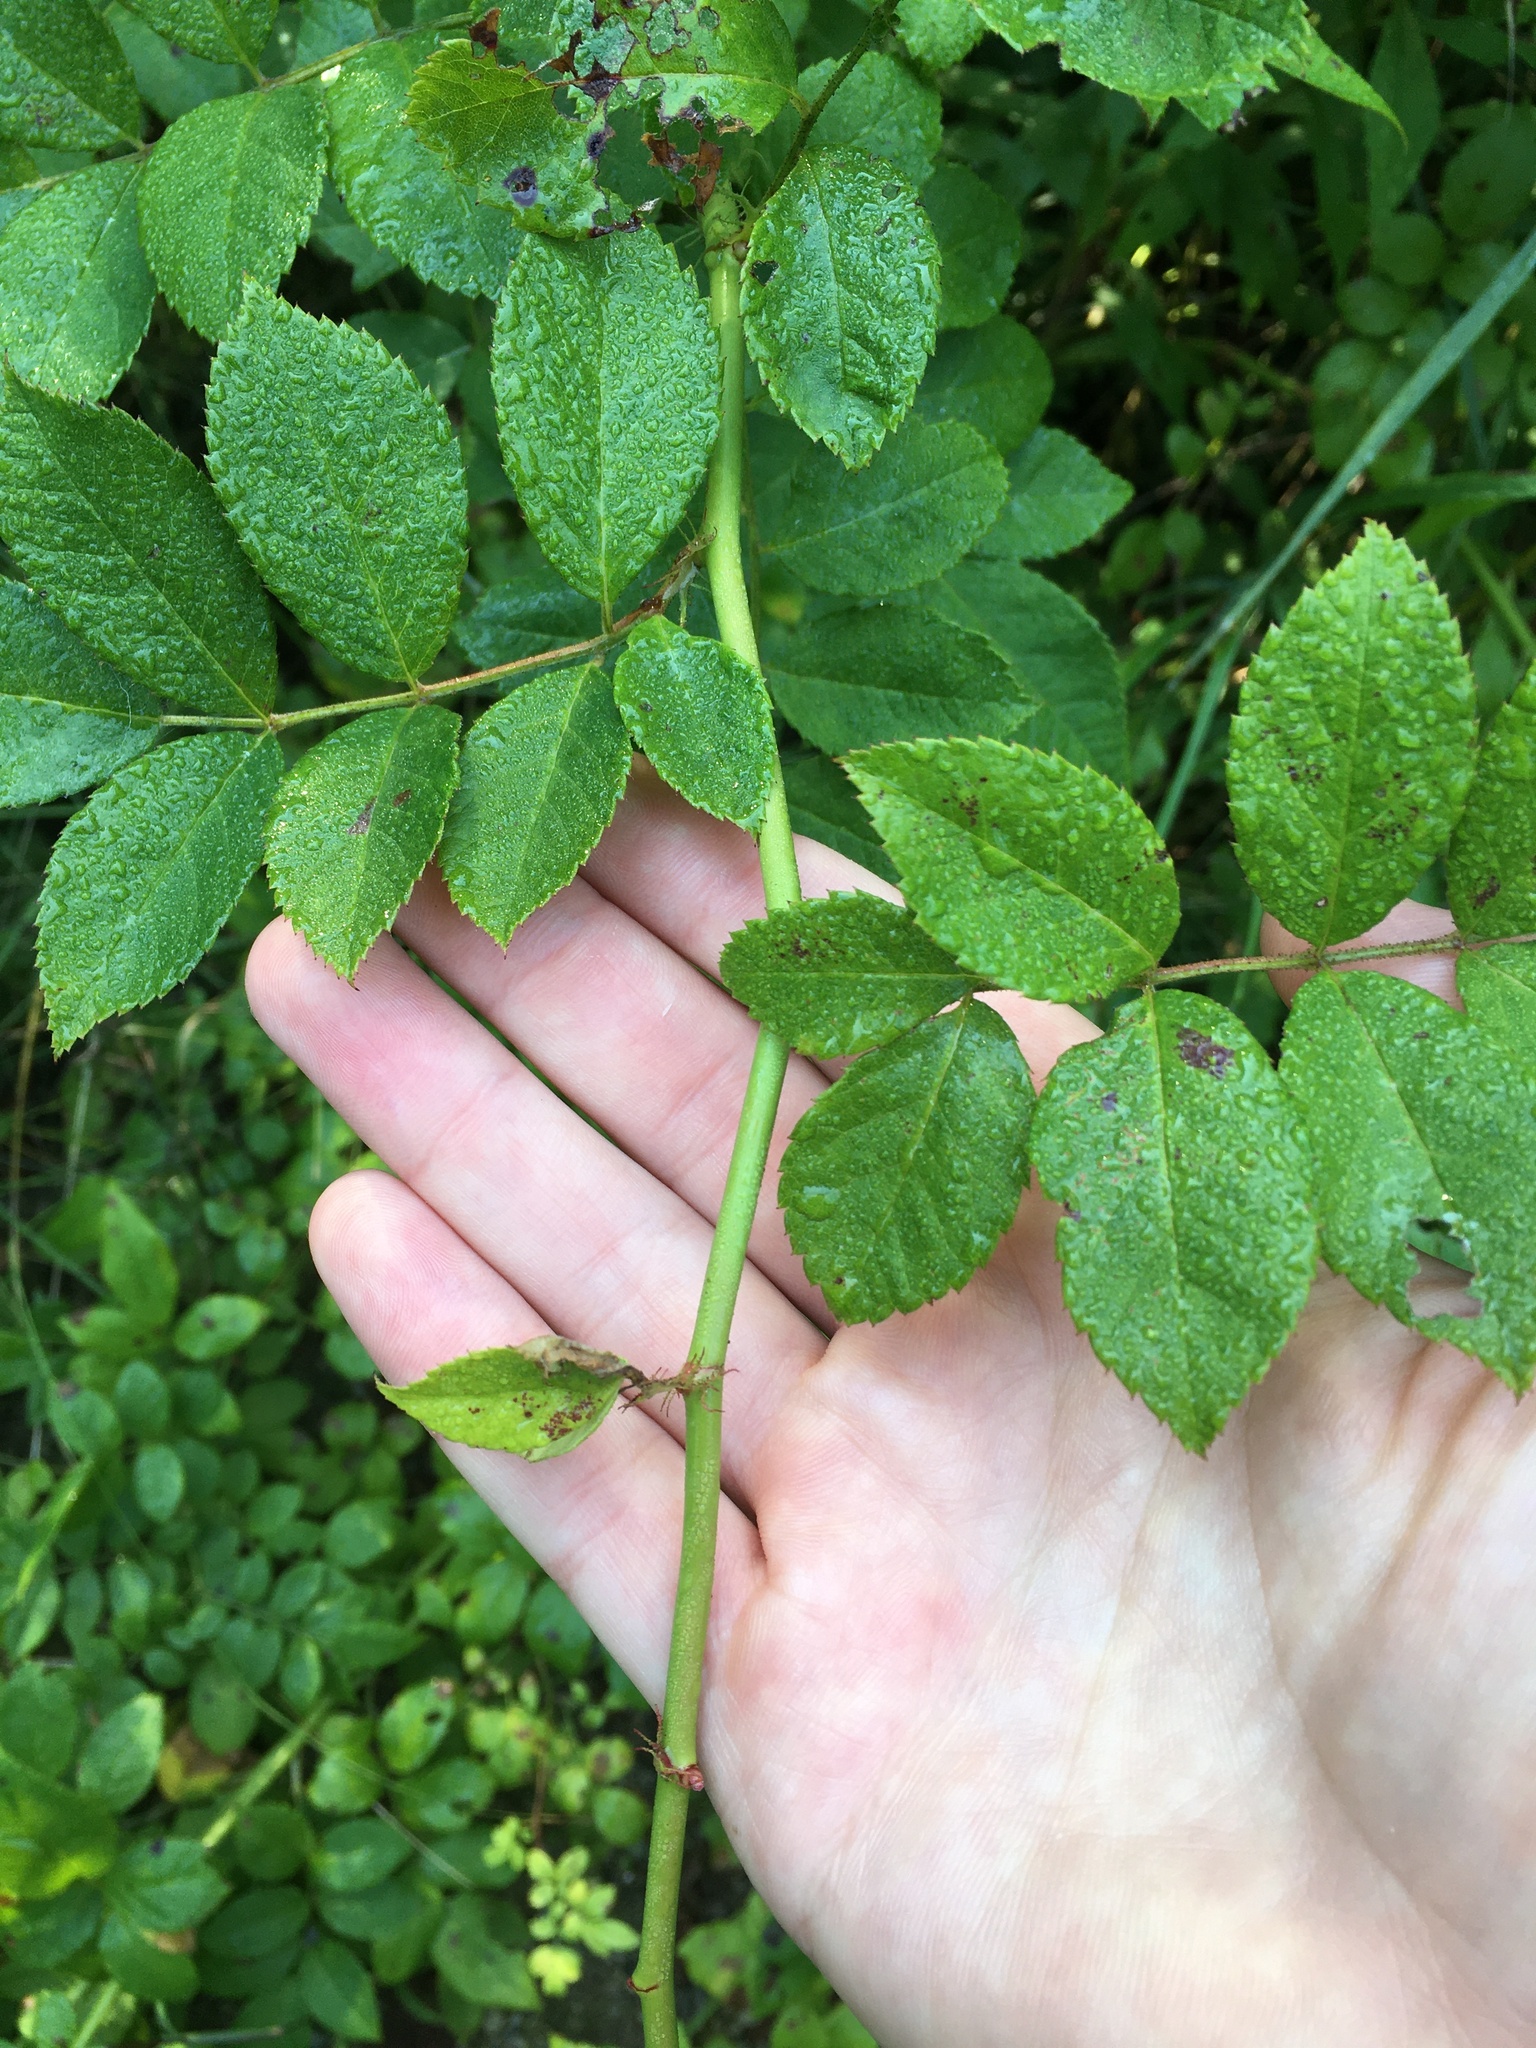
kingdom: Plantae
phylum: Tracheophyta
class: Magnoliopsida
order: Rosales
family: Rosaceae
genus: Rosa
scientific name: Rosa multiflora
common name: Multiflora rose
